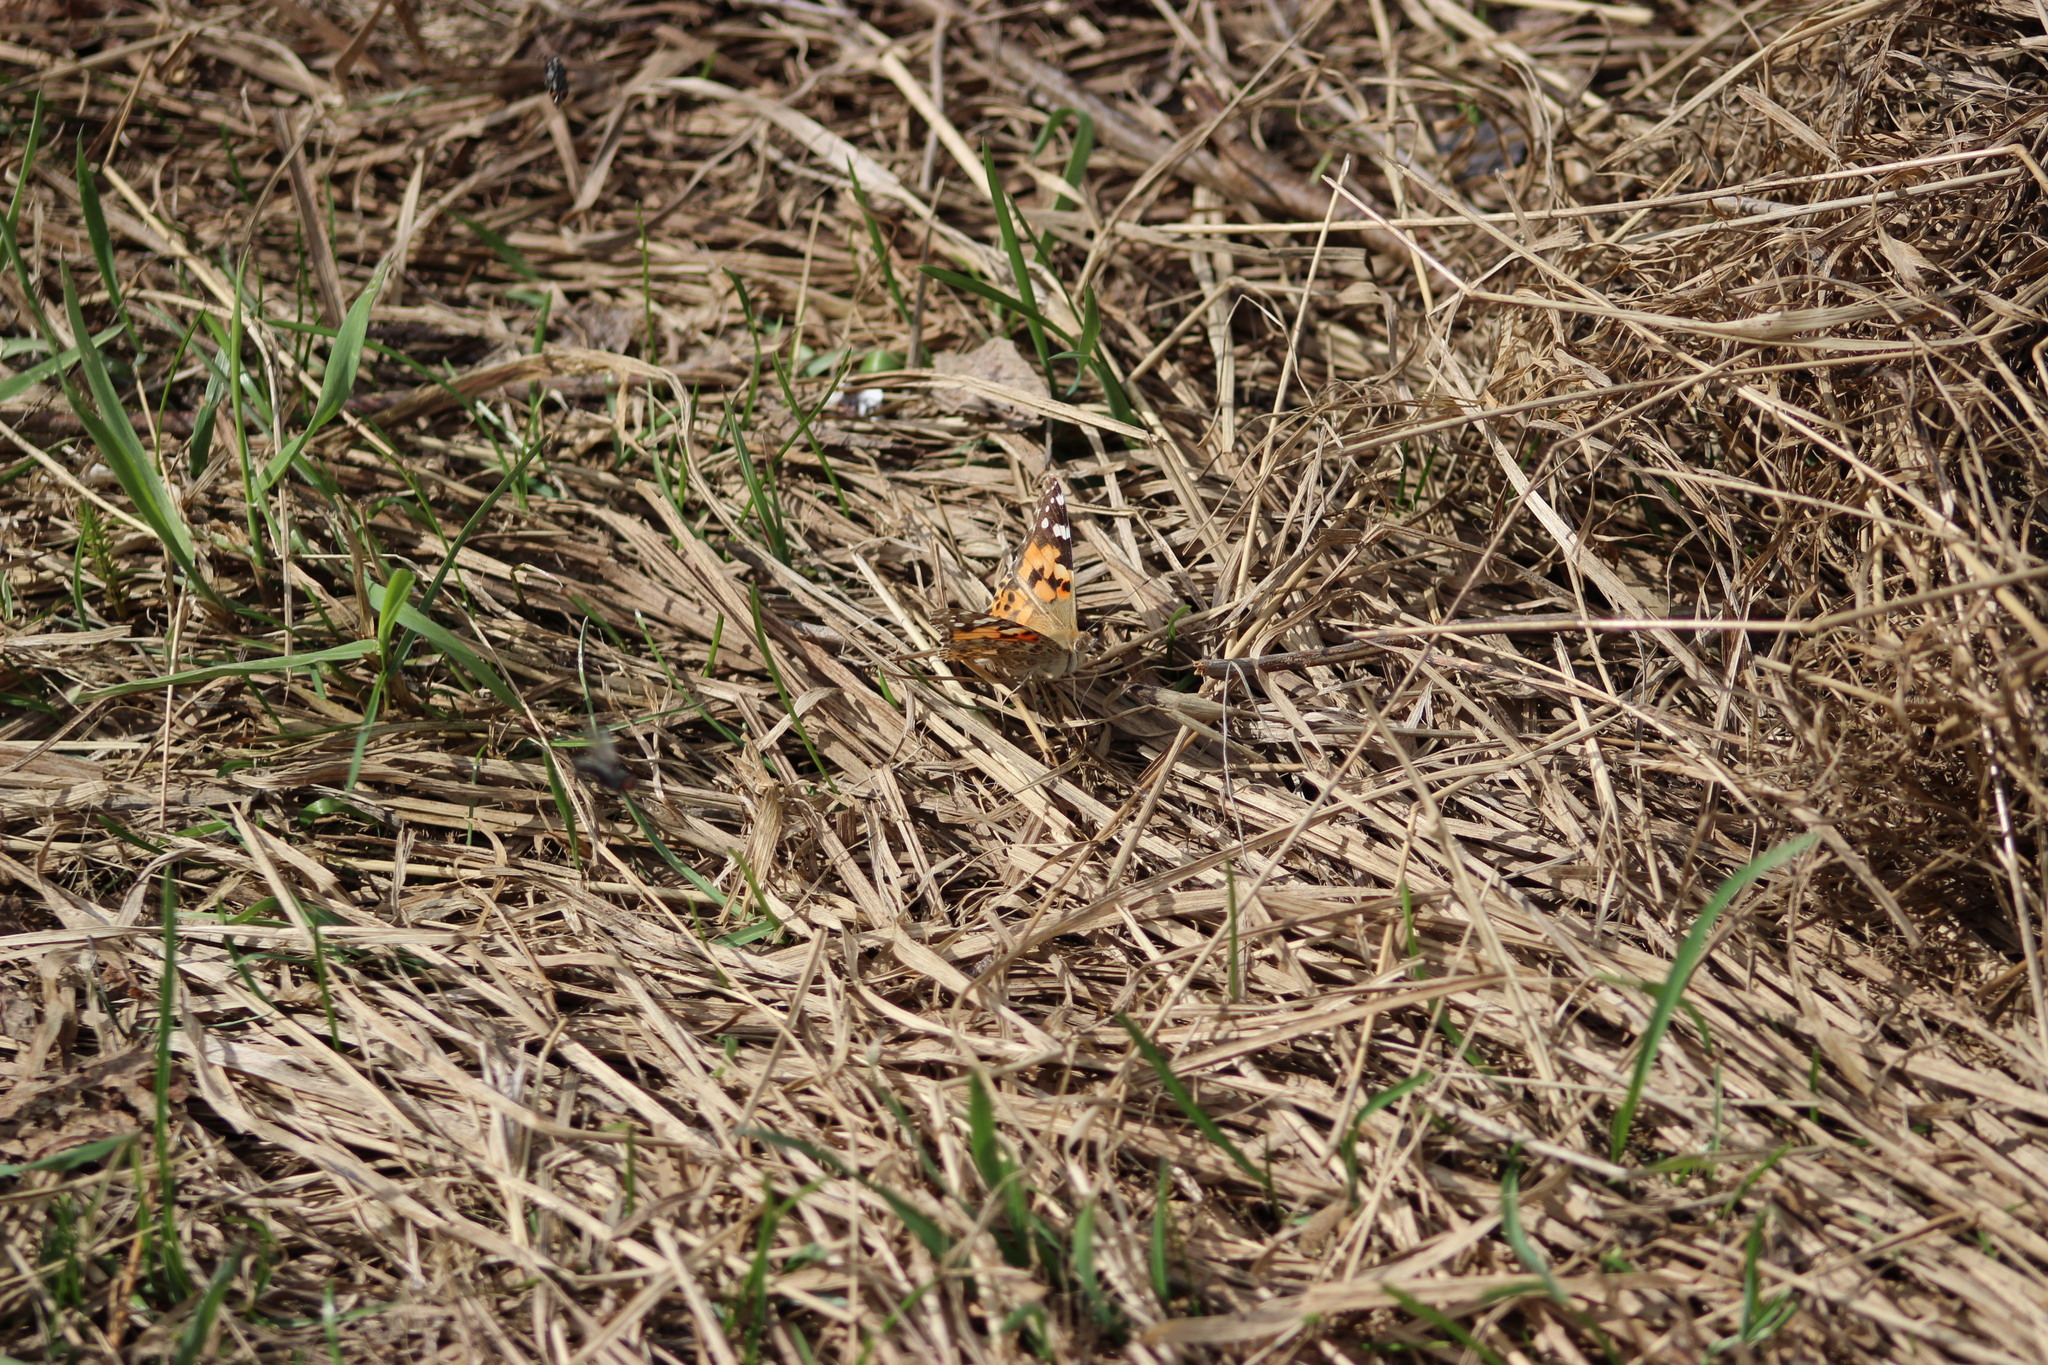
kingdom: Animalia
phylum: Arthropoda
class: Insecta
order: Lepidoptera
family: Nymphalidae
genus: Vanessa
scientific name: Vanessa cardui
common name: Painted lady
